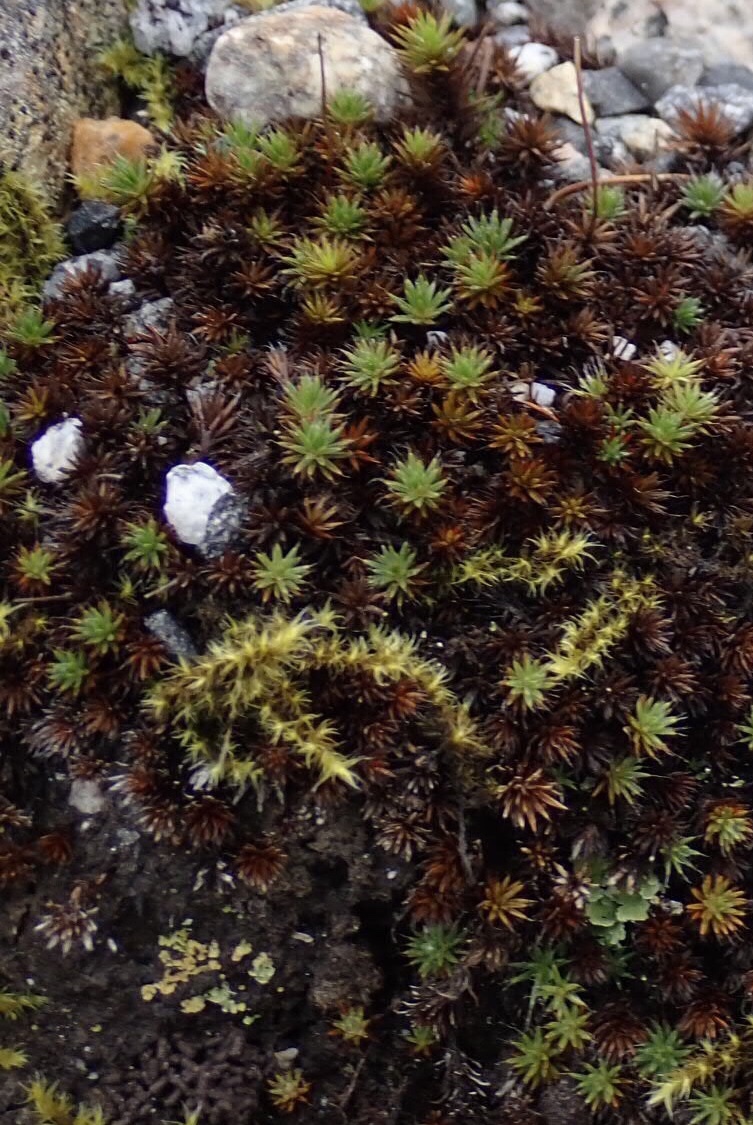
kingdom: Plantae
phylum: Bryophyta
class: Polytrichopsida
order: Polytrichales
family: Polytrichaceae
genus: Polytrichum
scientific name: Polytrichum piliferum
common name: Bristly haircap
